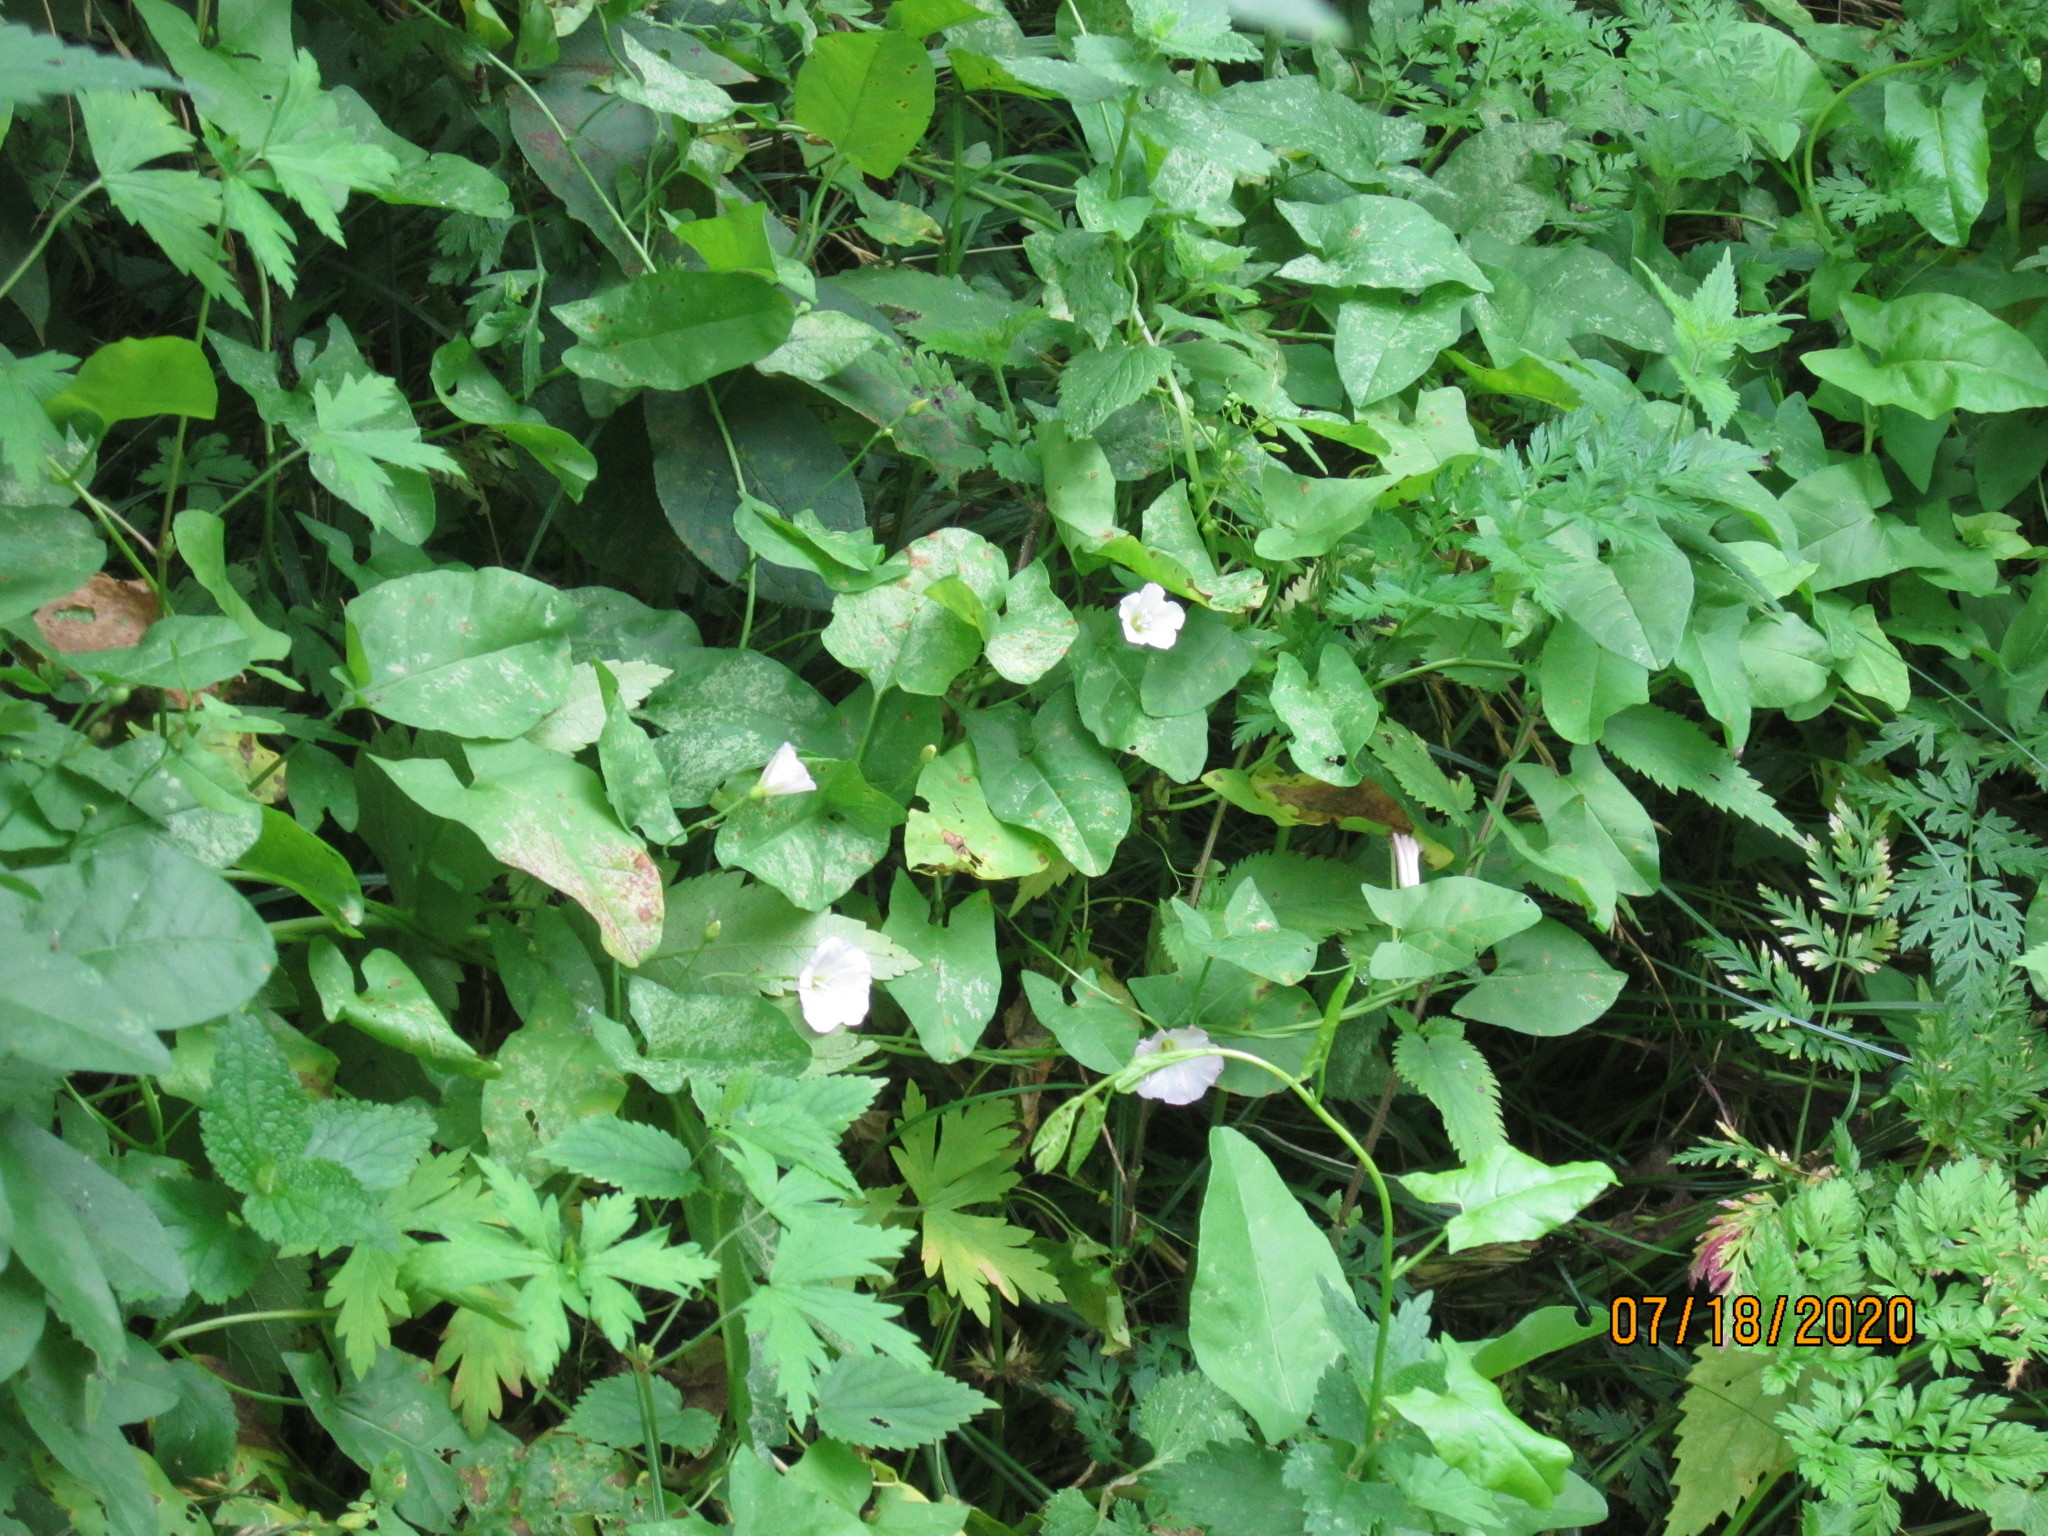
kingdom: Plantae
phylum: Tracheophyta
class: Magnoliopsida
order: Solanales
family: Convolvulaceae
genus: Convolvulus
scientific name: Convolvulus arvensis
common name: Field bindweed
